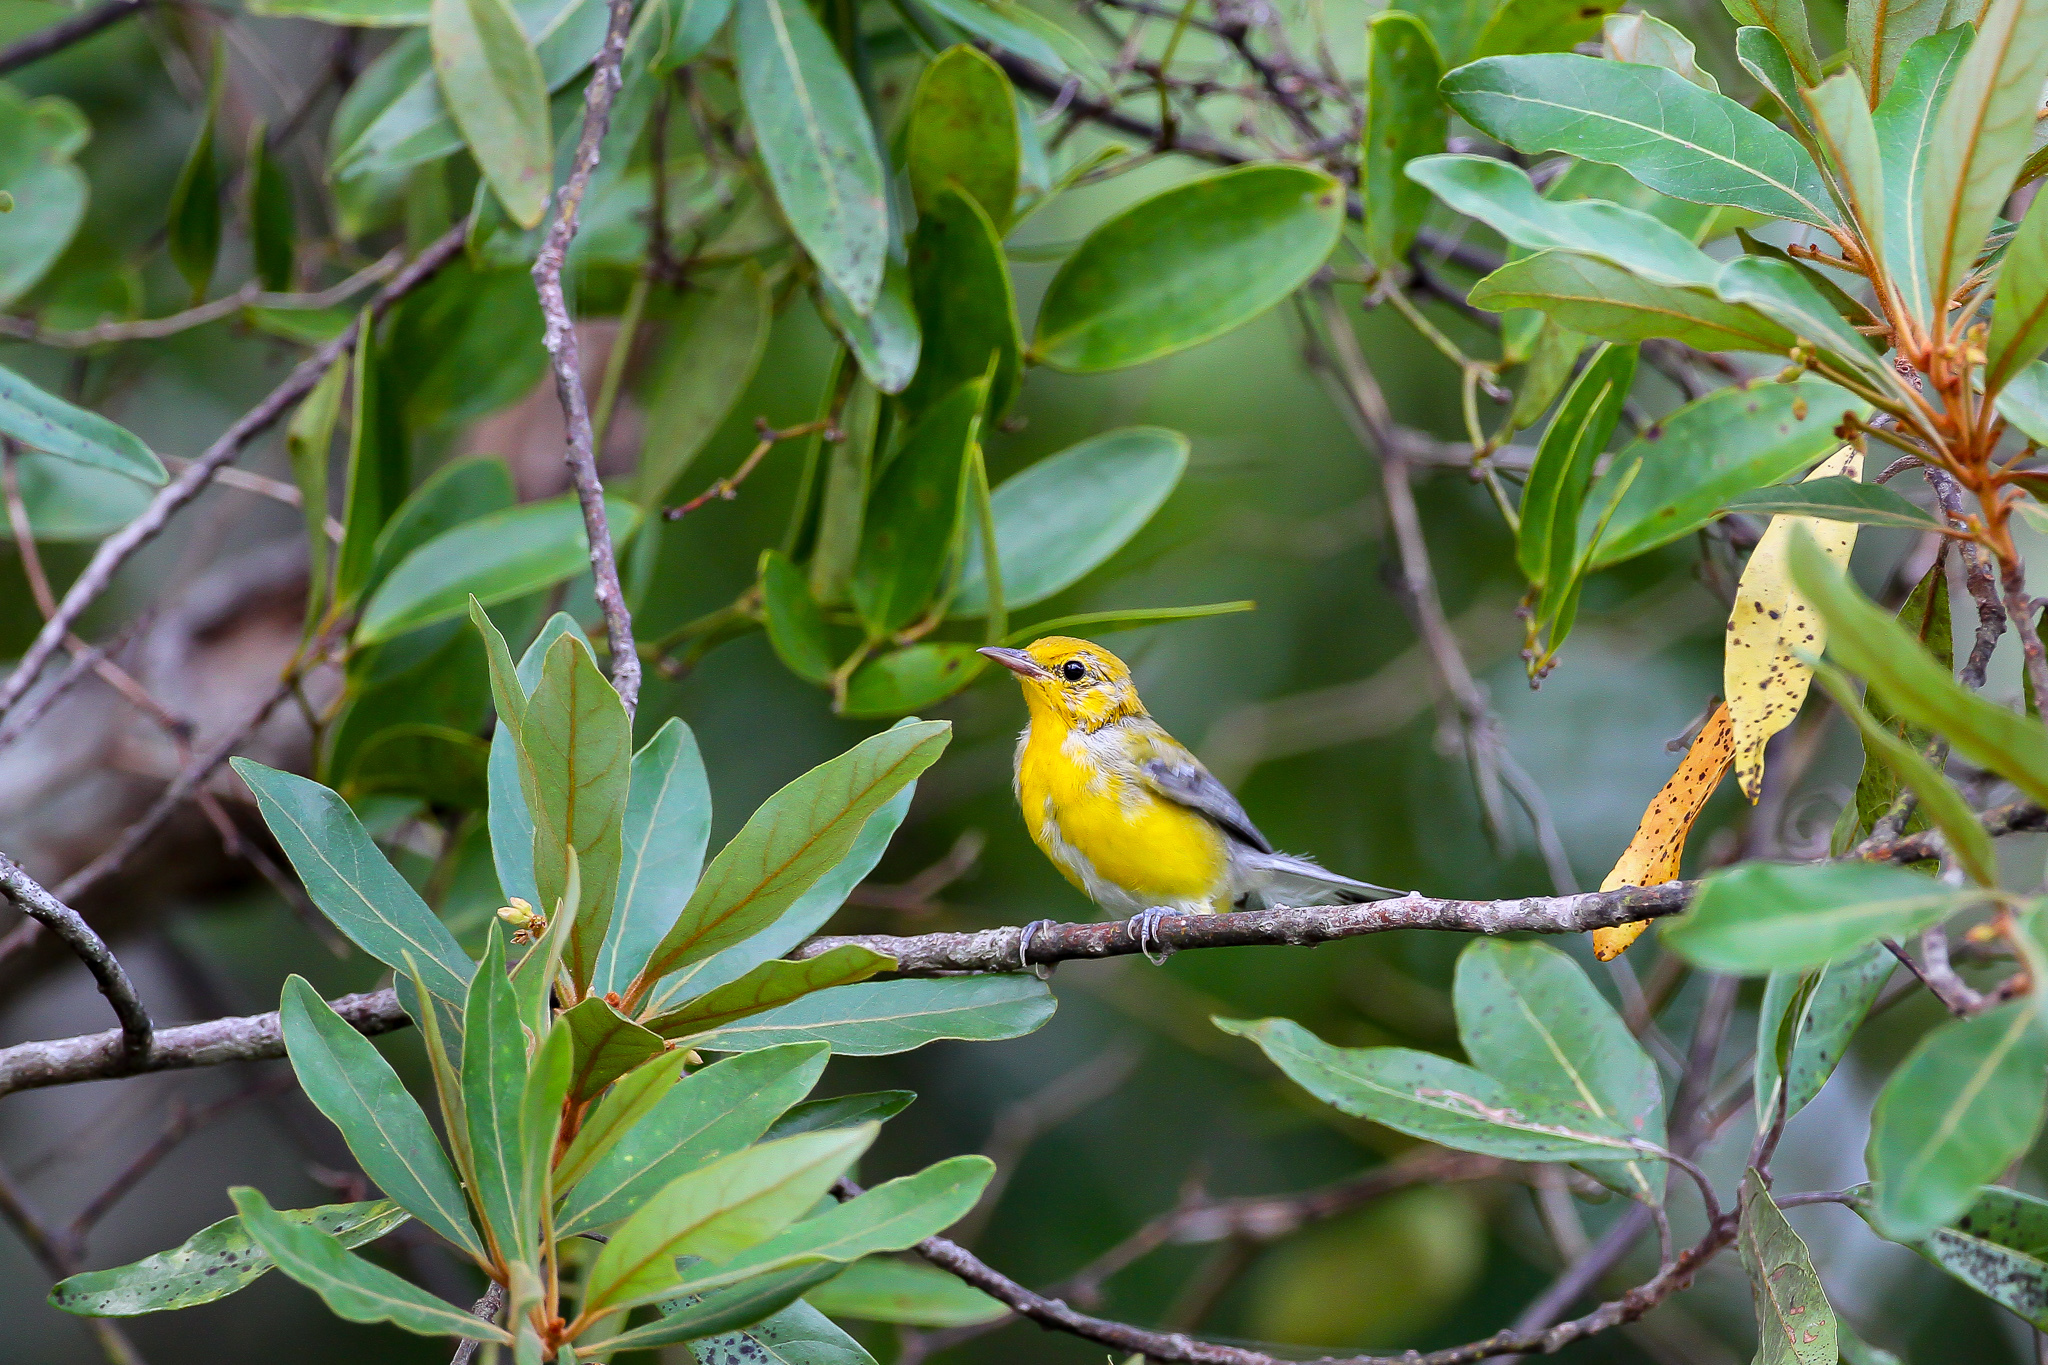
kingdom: Animalia
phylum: Chordata
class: Aves
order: Passeriformes
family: Parulidae
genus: Protonotaria
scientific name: Protonotaria citrea
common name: Prothonotary warbler
